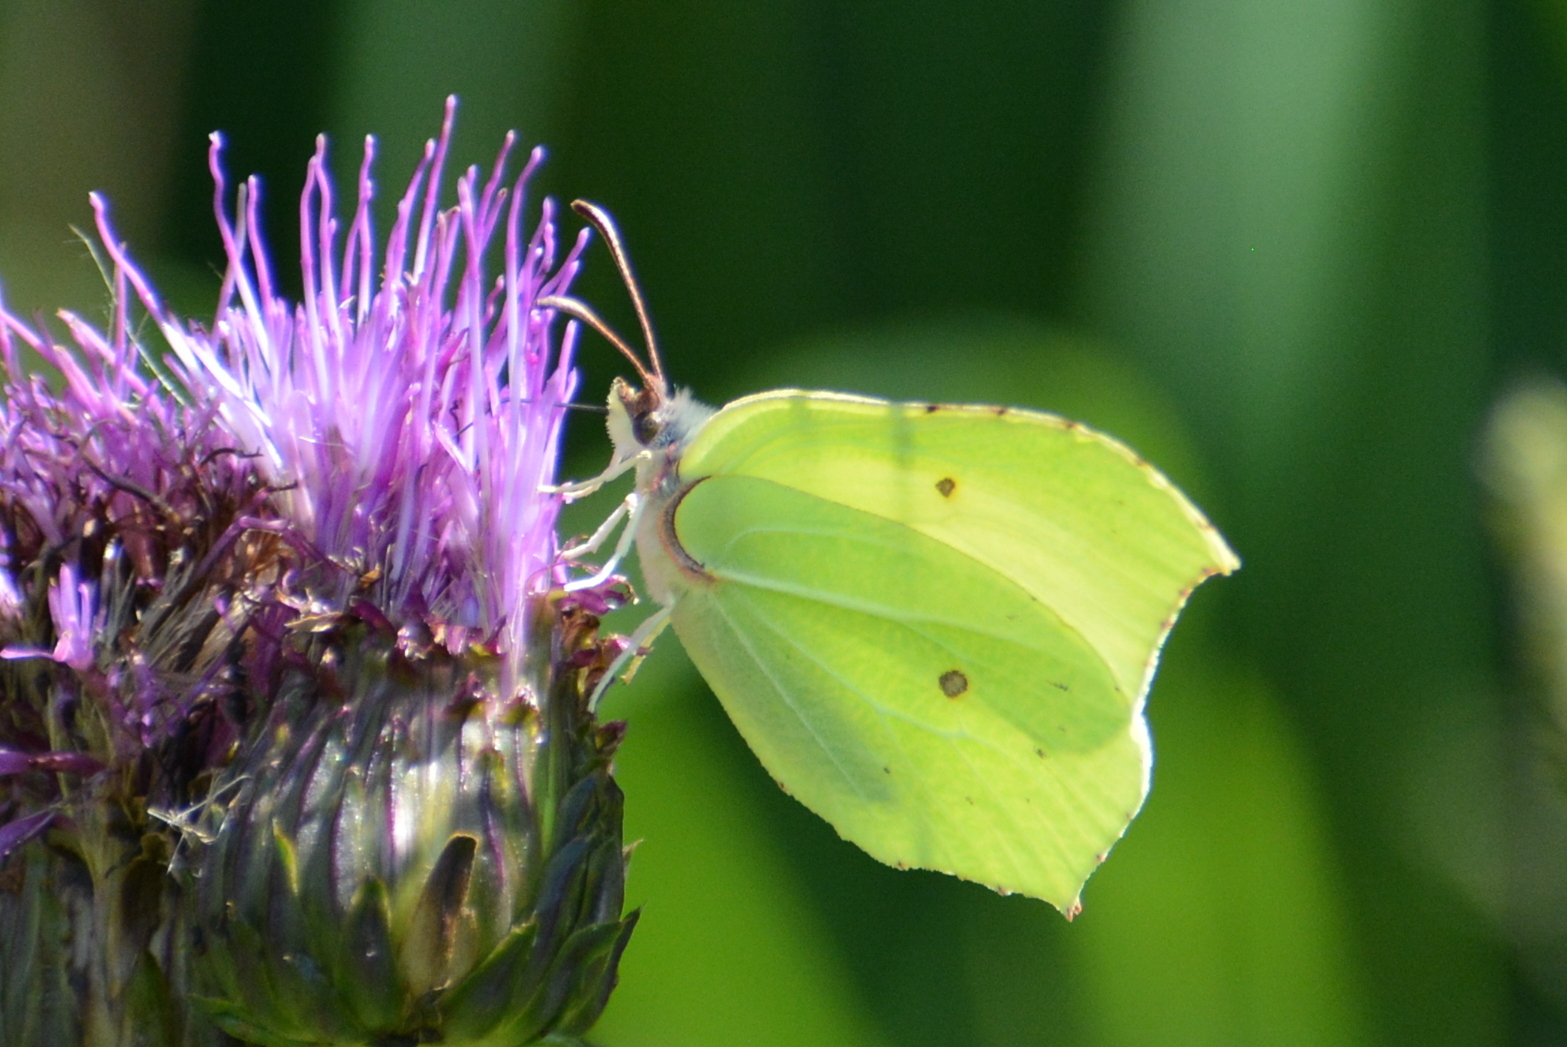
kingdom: Animalia
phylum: Arthropoda
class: Insecta
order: Lepidoptera
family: Pieridae
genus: Gonepteryx
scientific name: Gonepteryx rhamni
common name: Brimstone
